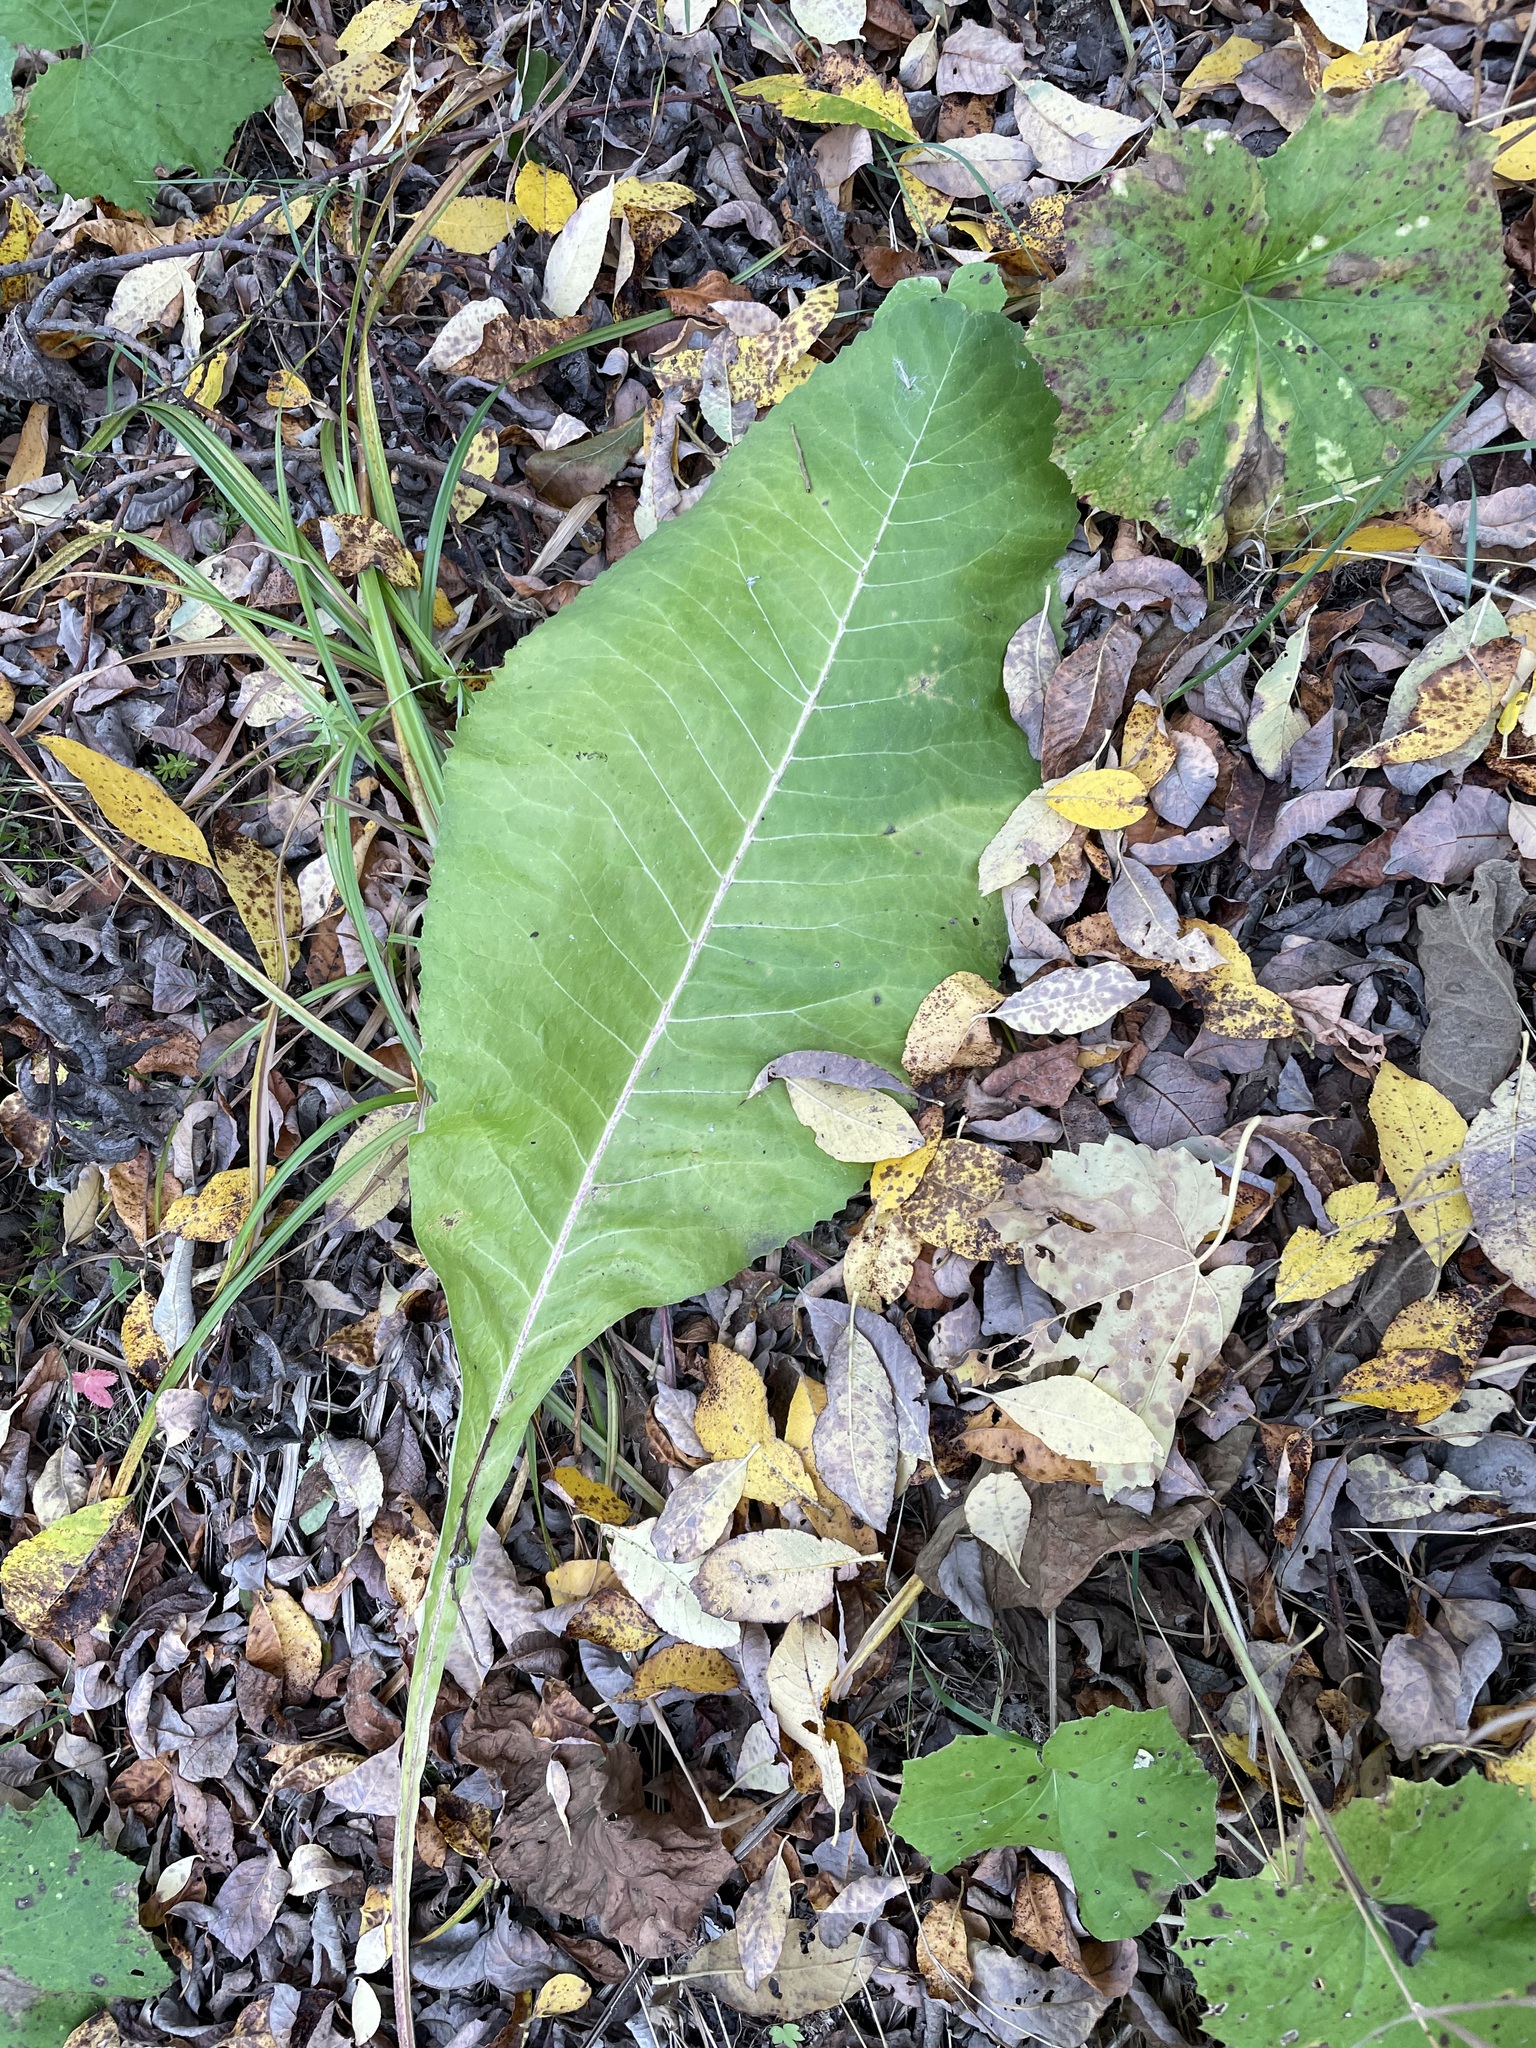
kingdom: Plantae
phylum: Tracheophyta
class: Magnoliopsida
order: Asterales
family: Asteraceae
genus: Inula
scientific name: Inula helenium
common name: Elecampane
